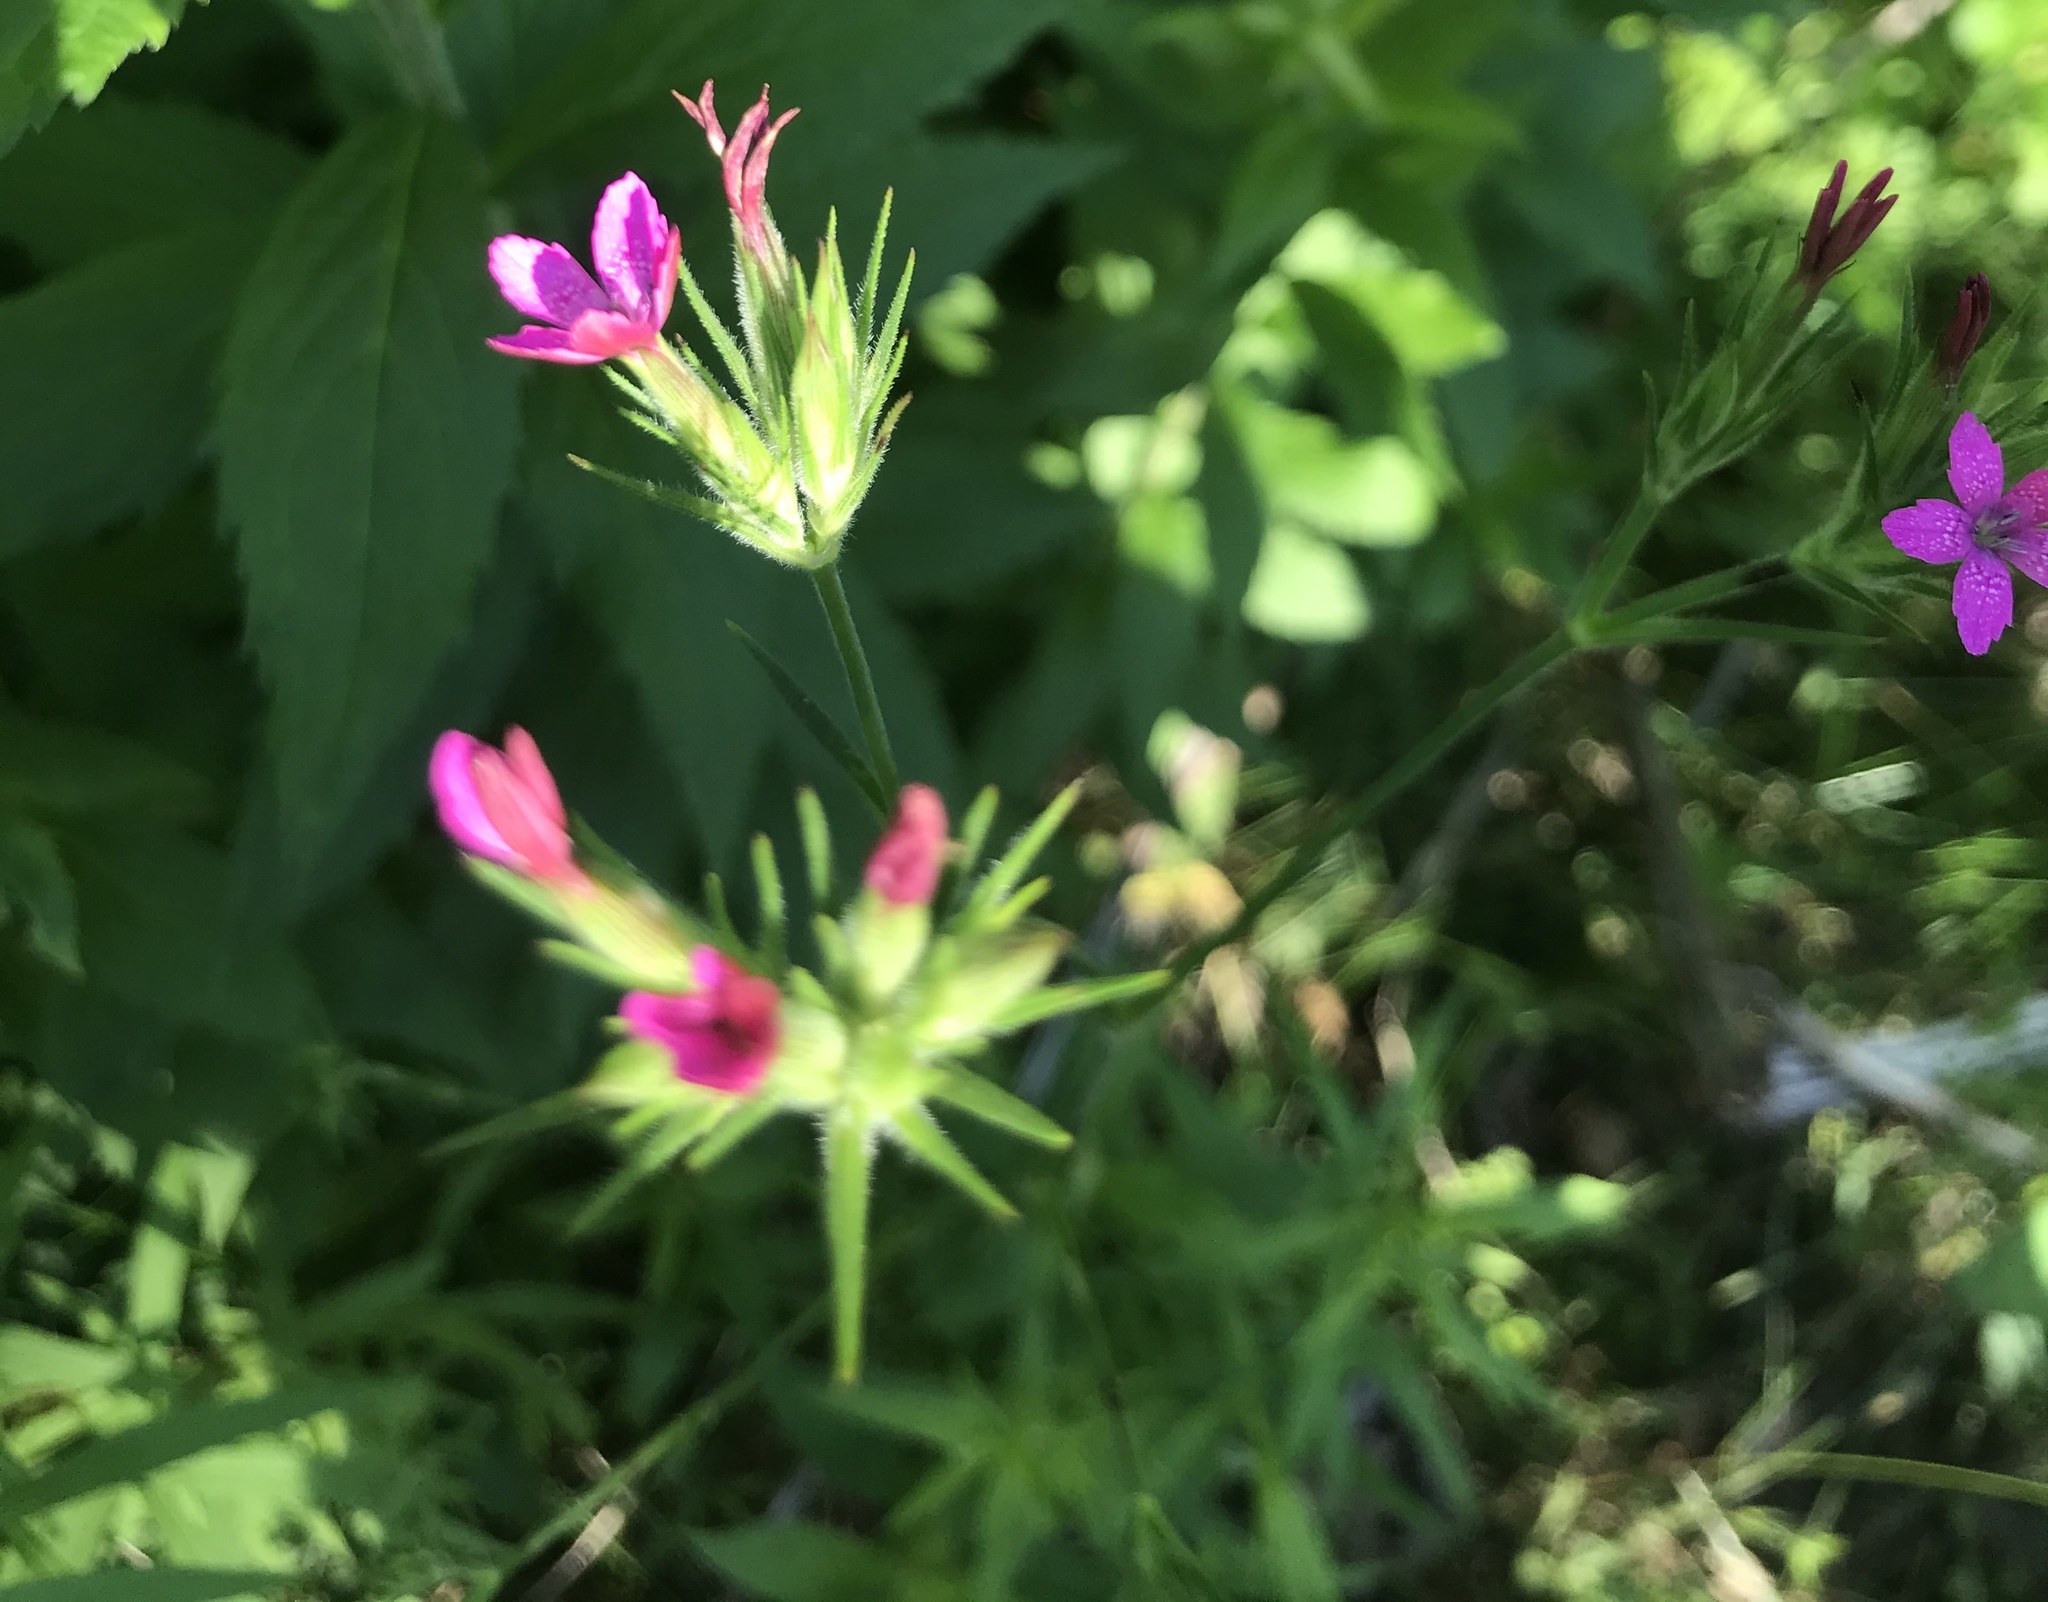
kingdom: Plantae
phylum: Tracheophyta
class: Magnoliopsida
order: Caryophyllales
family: Caryophyllaceae
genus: Dianthus
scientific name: Dianthus armeria
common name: Deptford pink
